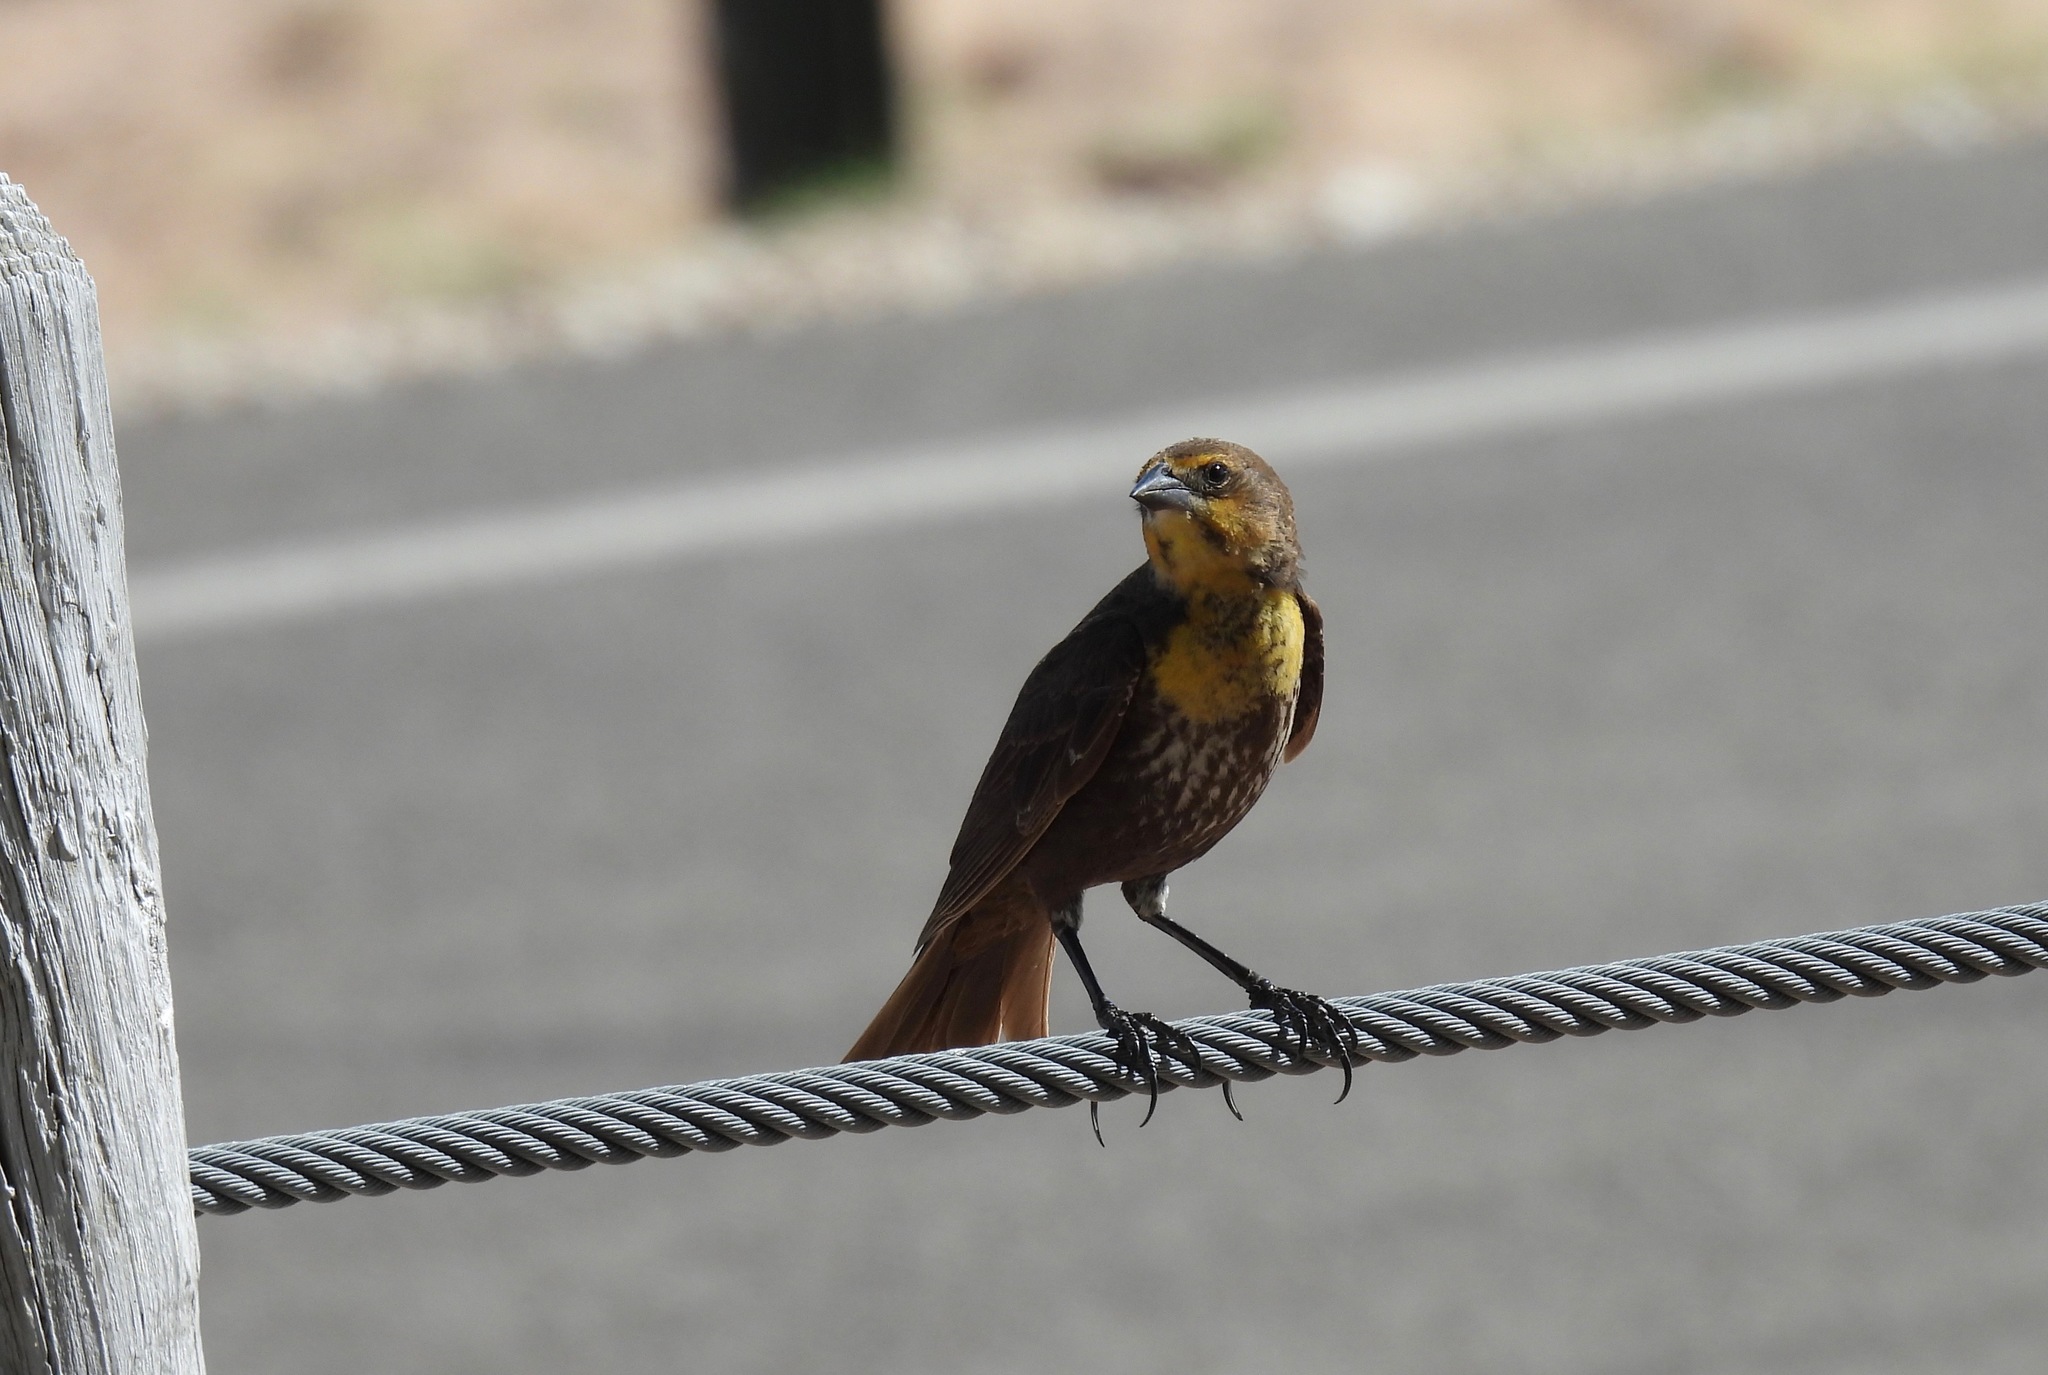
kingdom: Animalia
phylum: Chordata
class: Aves
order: Passeriformes
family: Icteridae
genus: Xanthocephalus
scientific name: Xanthocephalus xanthocephalus
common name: Yellow-headed blackbird
